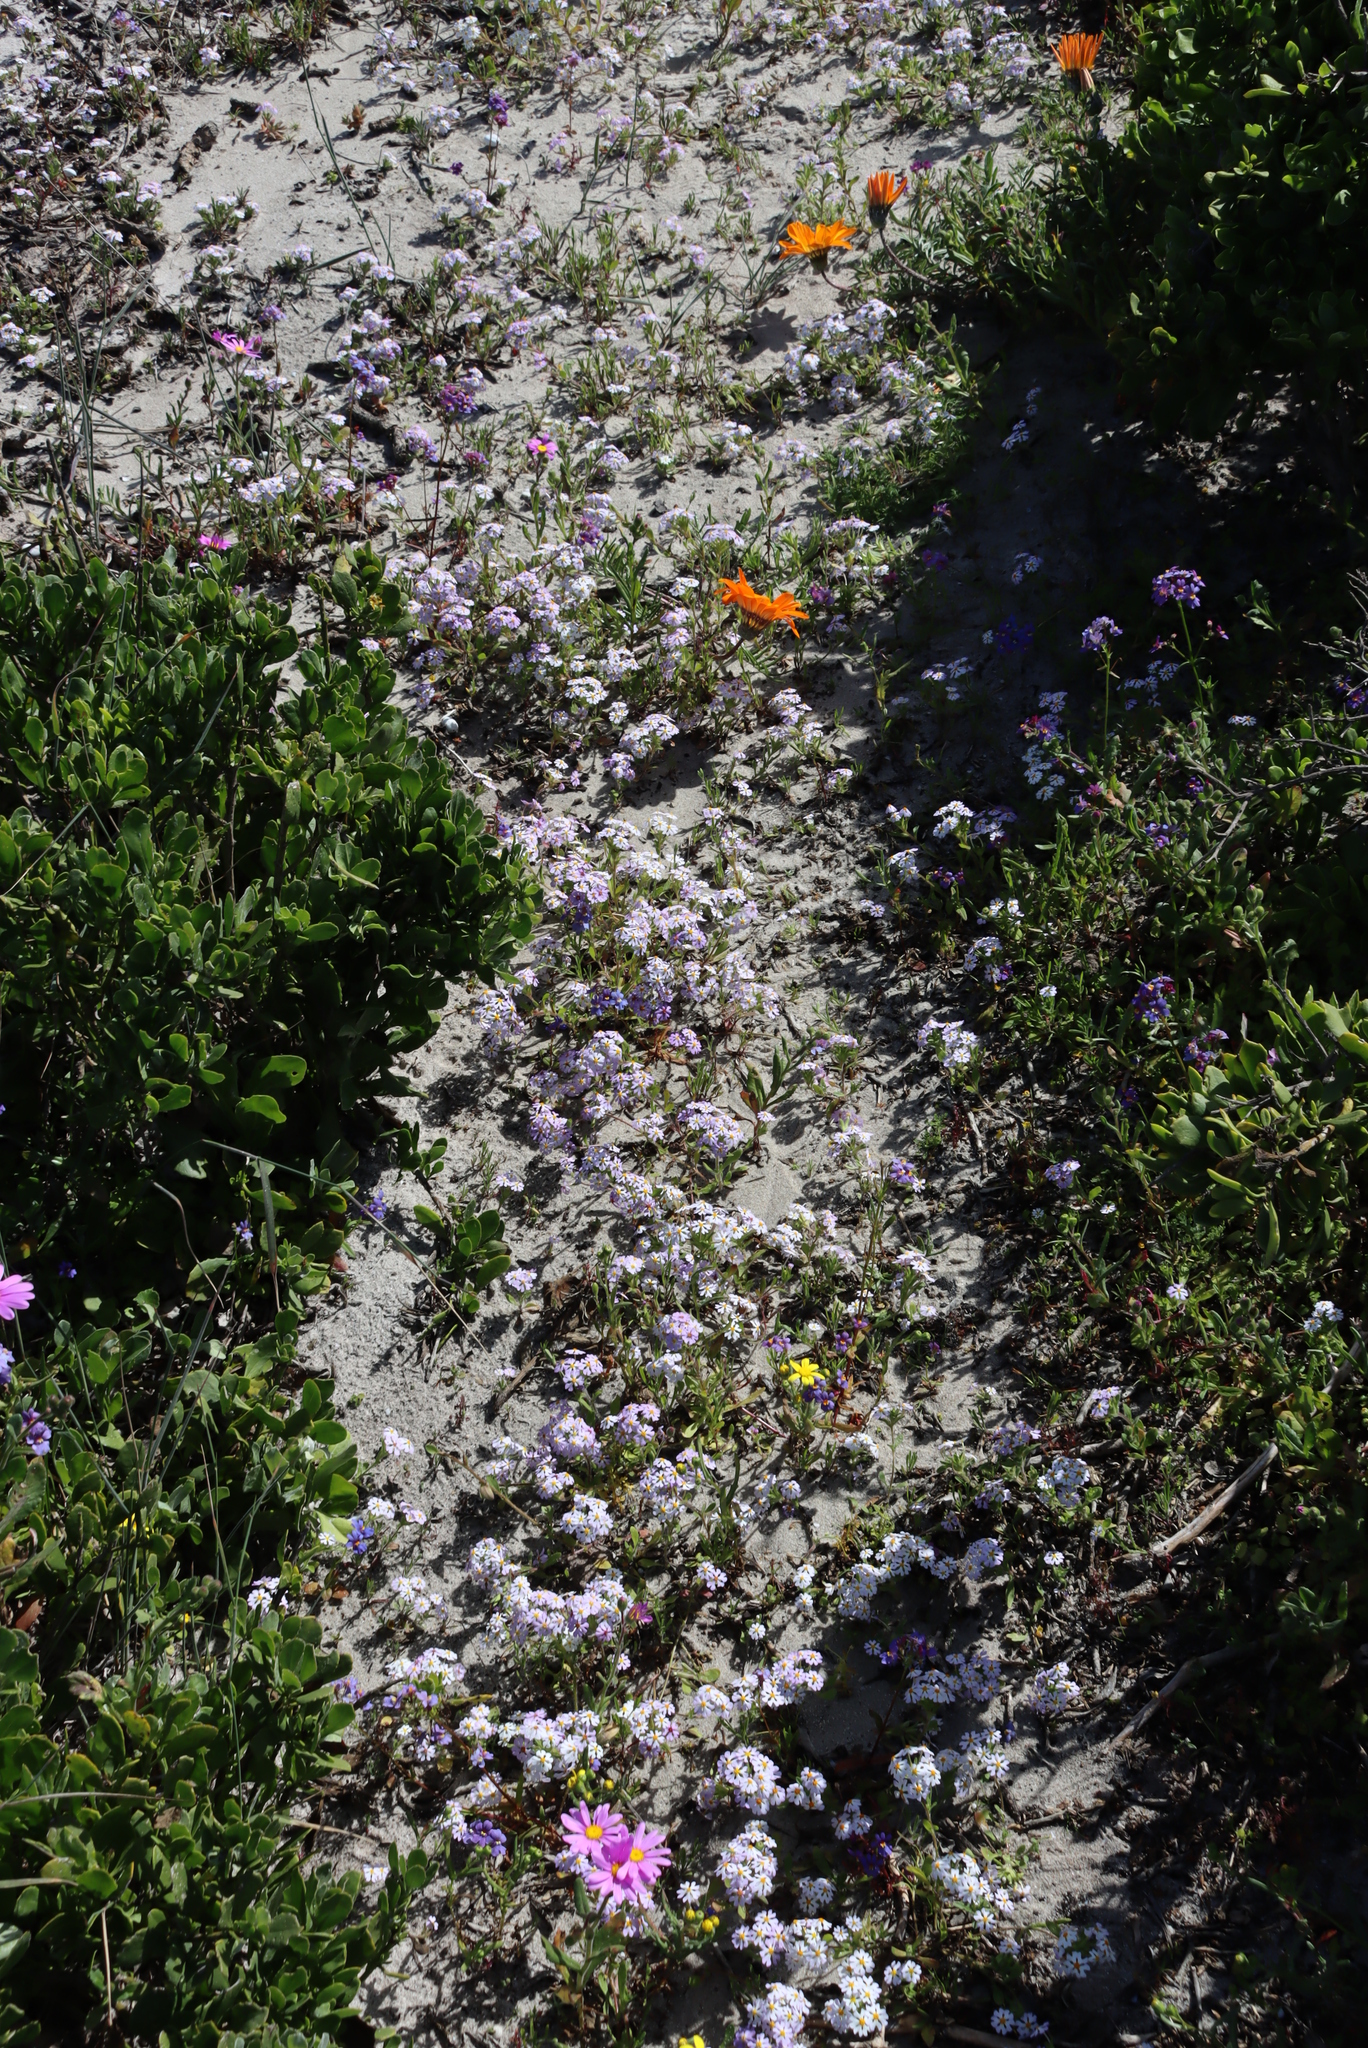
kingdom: Plantae
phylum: Tracheophyta
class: Magnoliopsida
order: Lamiales
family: Scrophulariaceae
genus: Zaluzianskya
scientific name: Zaluzianskya villosa
